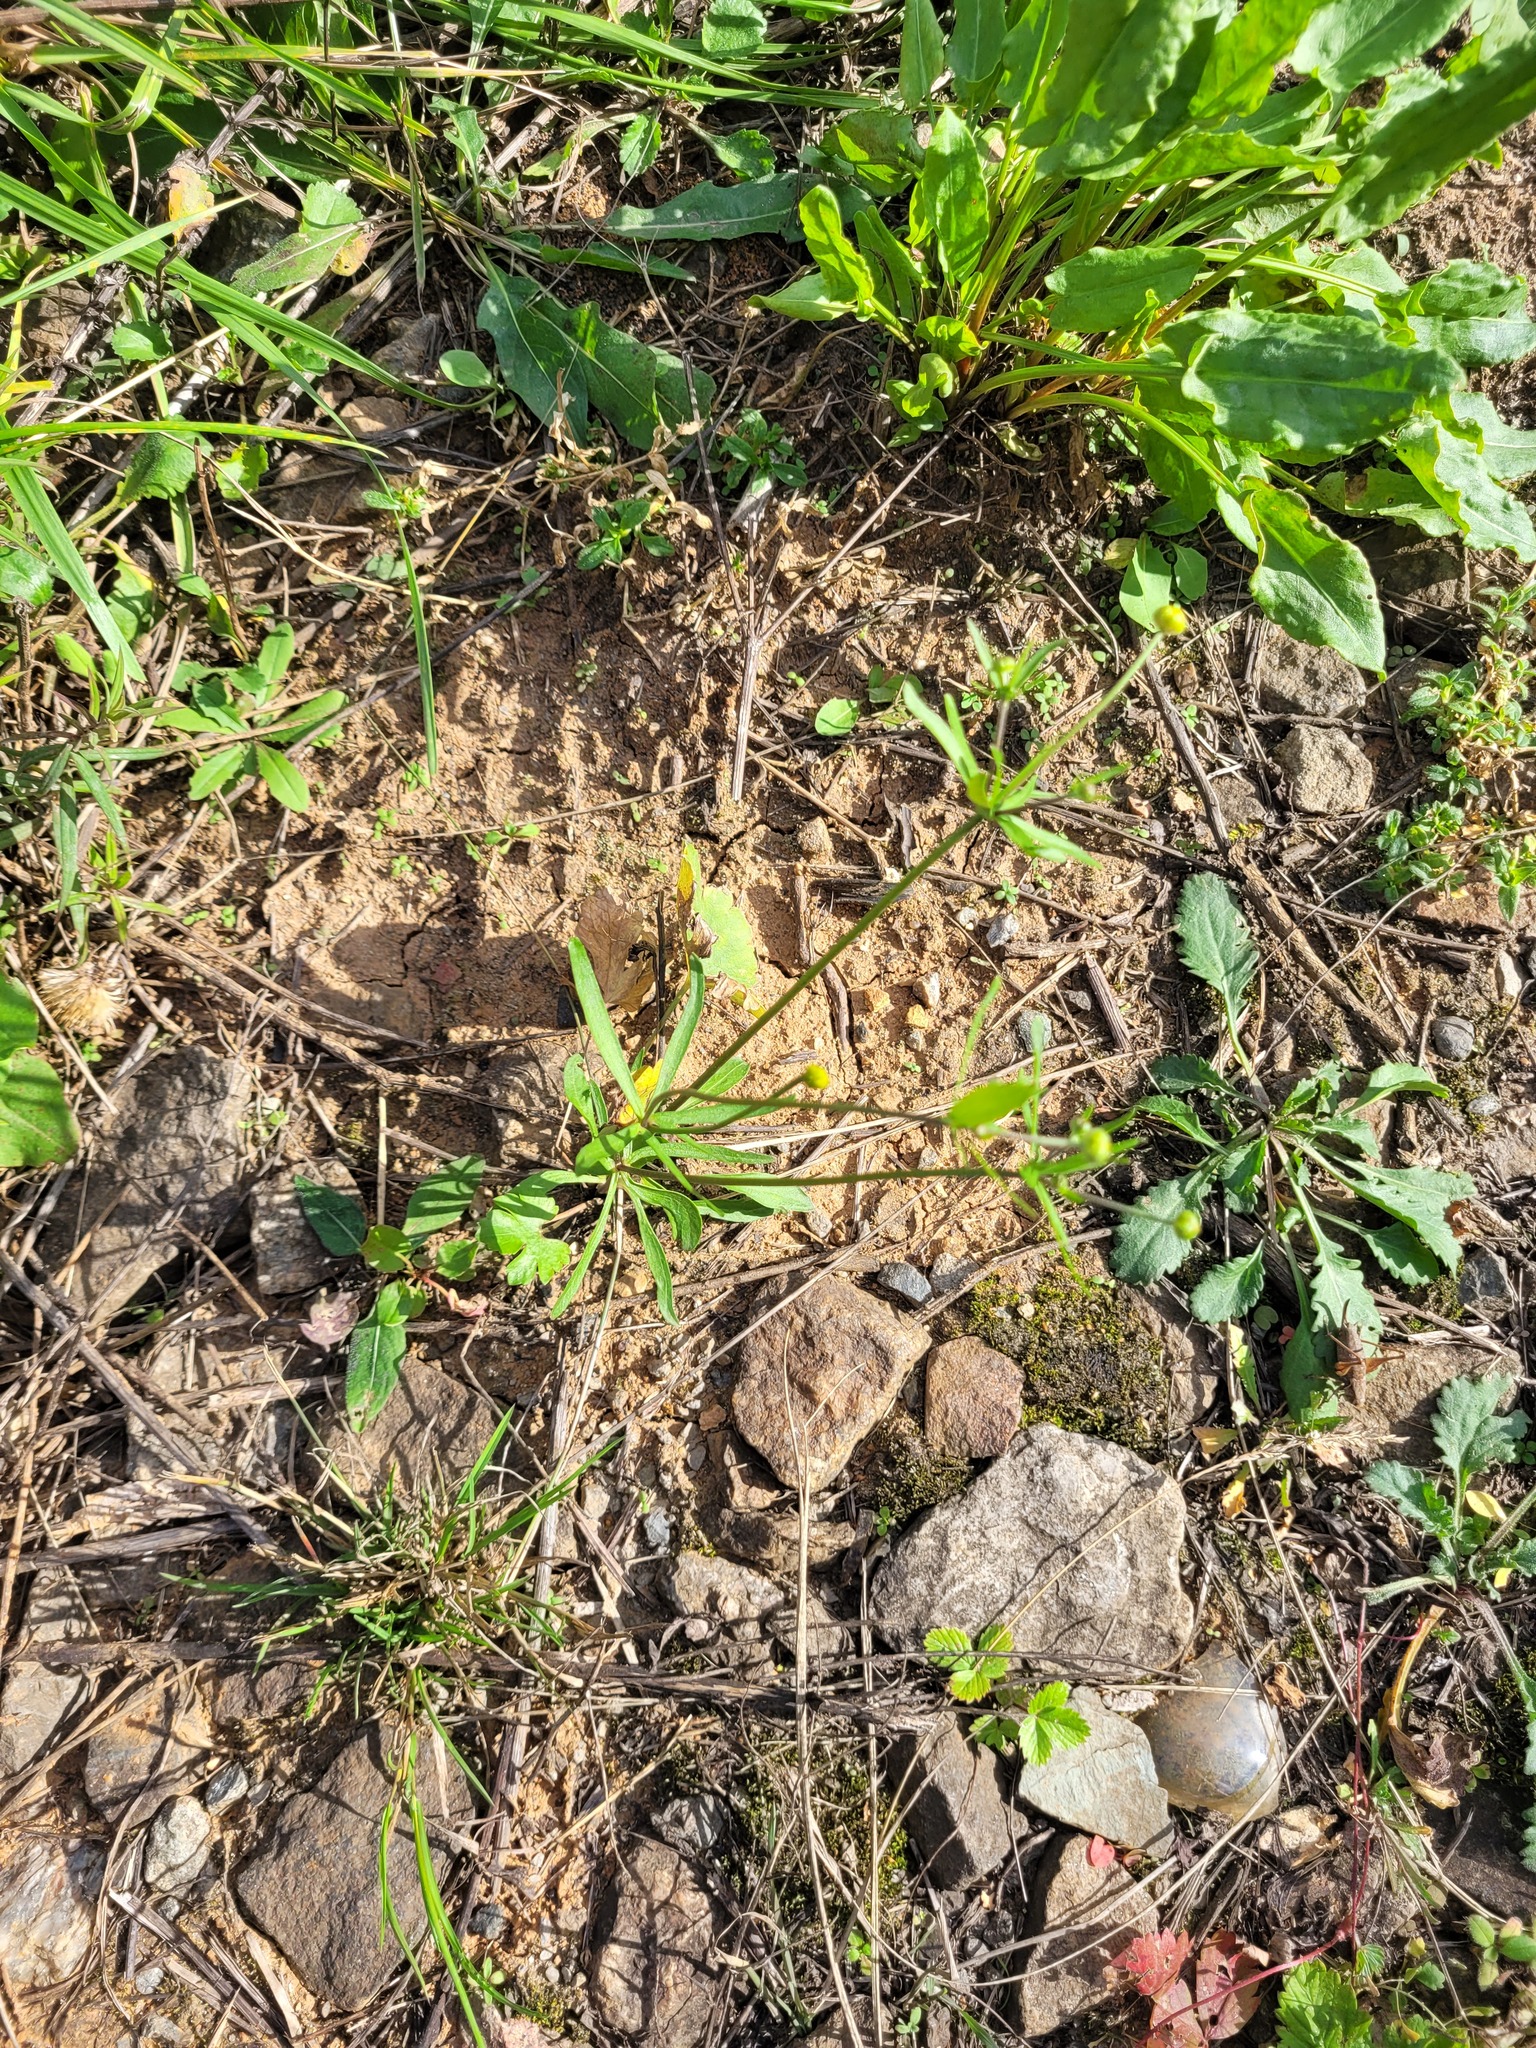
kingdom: Plantae
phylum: Tracheophyta
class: Magnoliopsida
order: Ranunculales
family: Ranunculaceae
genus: Ranunculus
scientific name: Ranunculus auricomus
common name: Goldilocks buttercup
